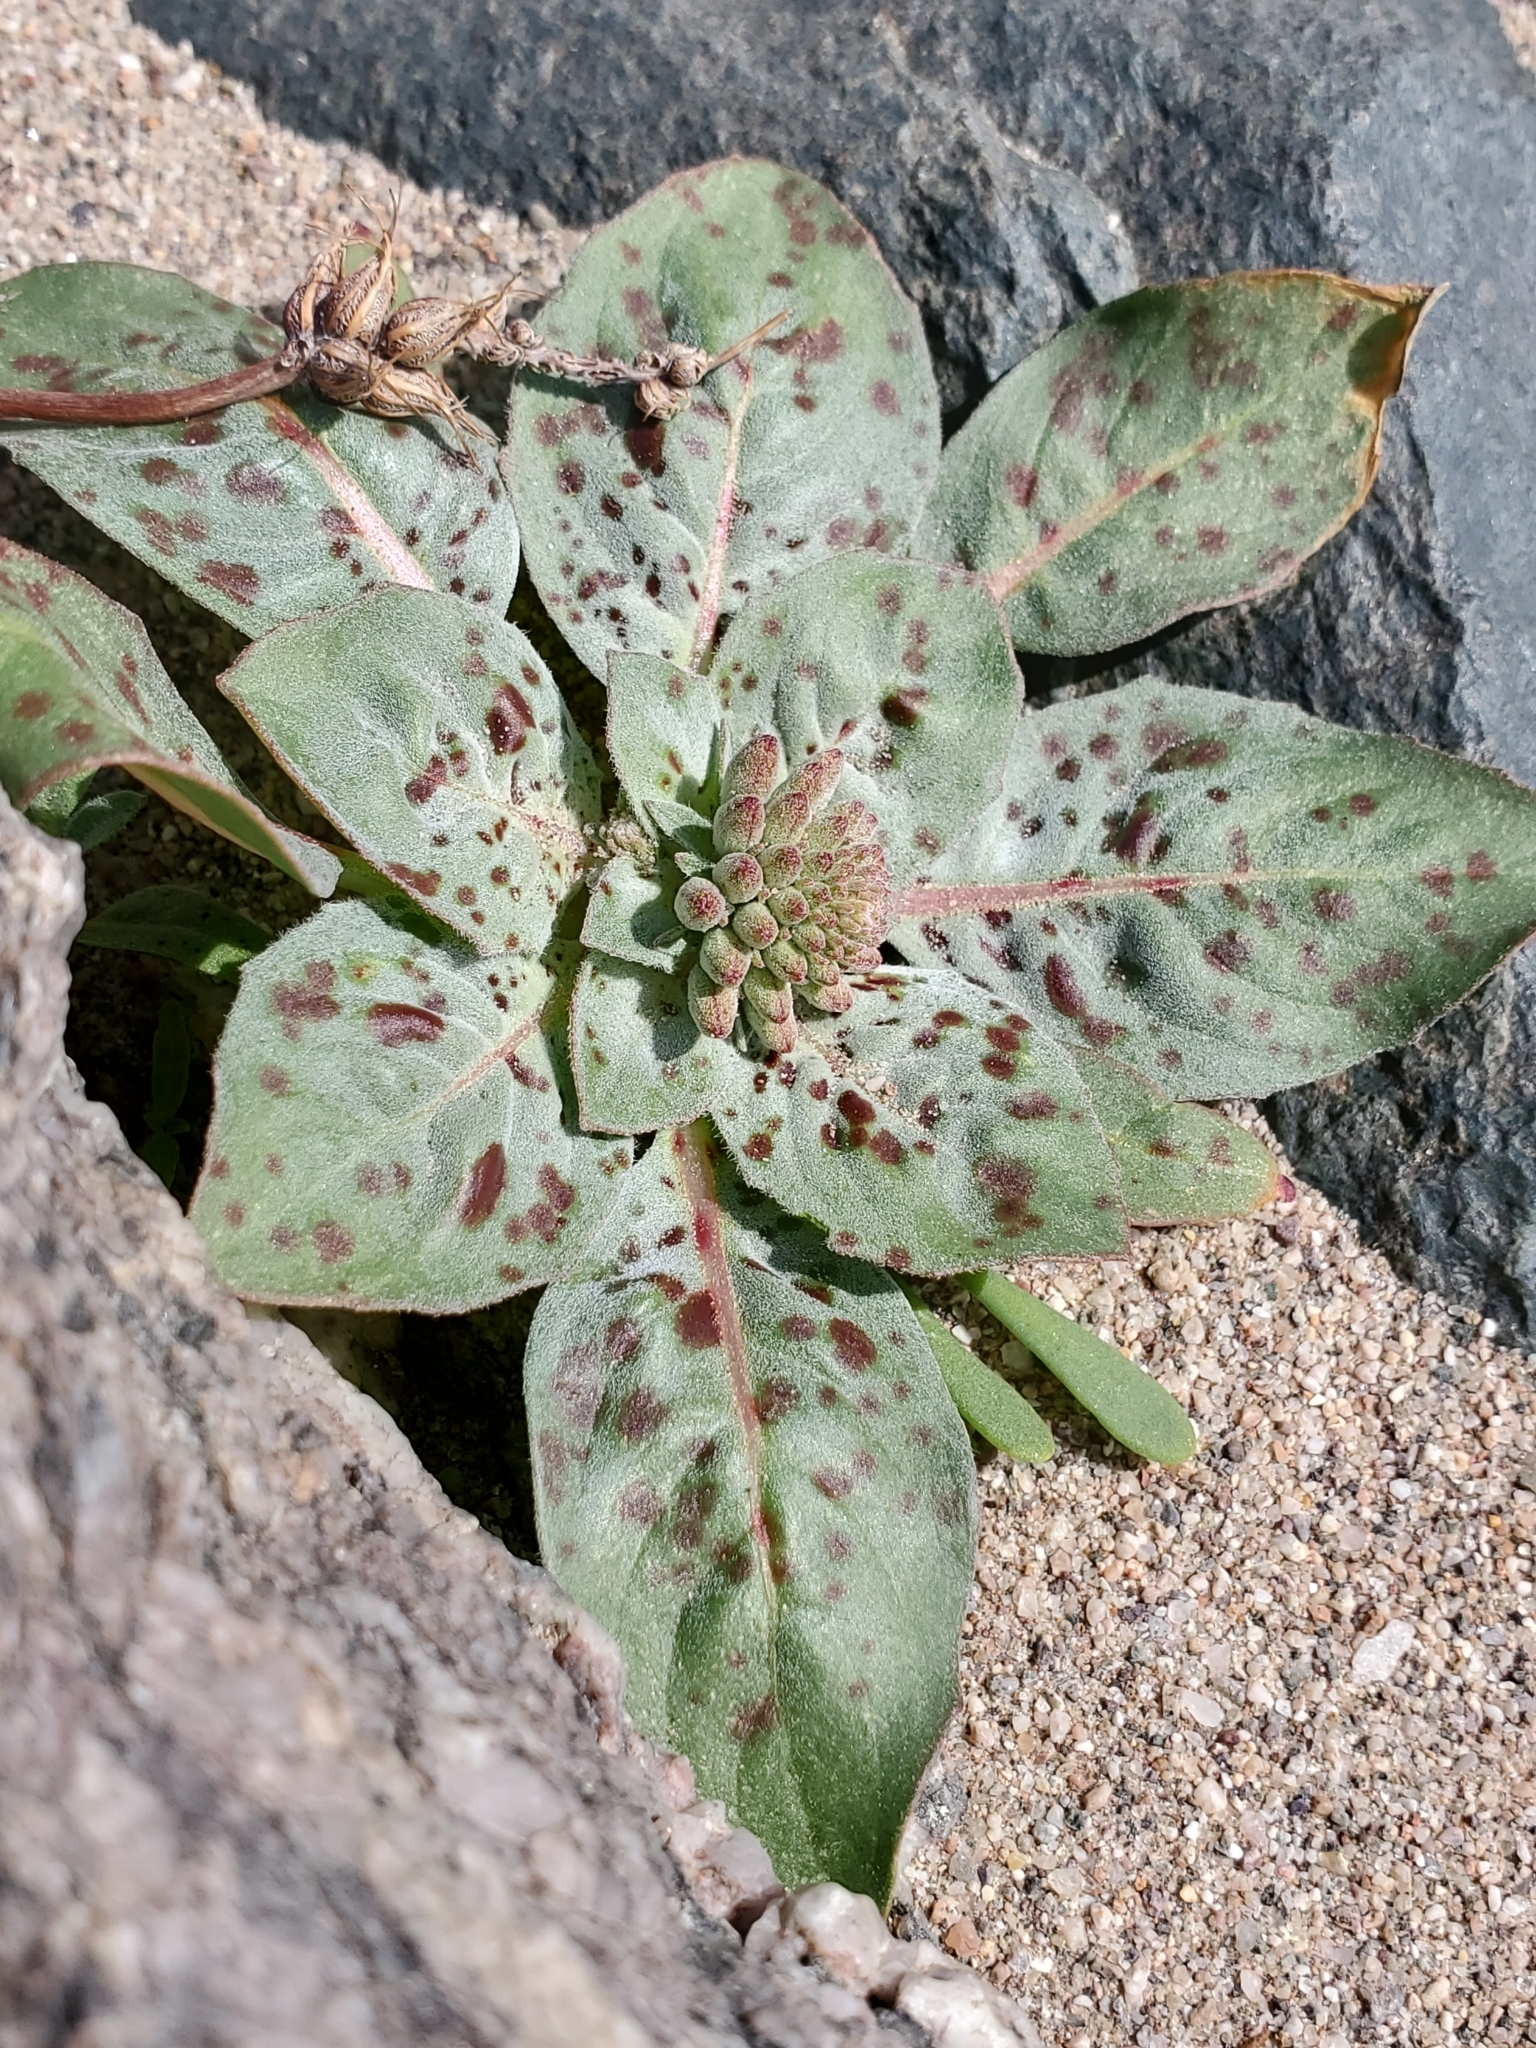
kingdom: Plantae
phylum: Tracheophyta
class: Magnoliopsida
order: Myrtales
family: Onagraceae
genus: Eremothera
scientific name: Eremothera boothii
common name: Booth's evening primrose
